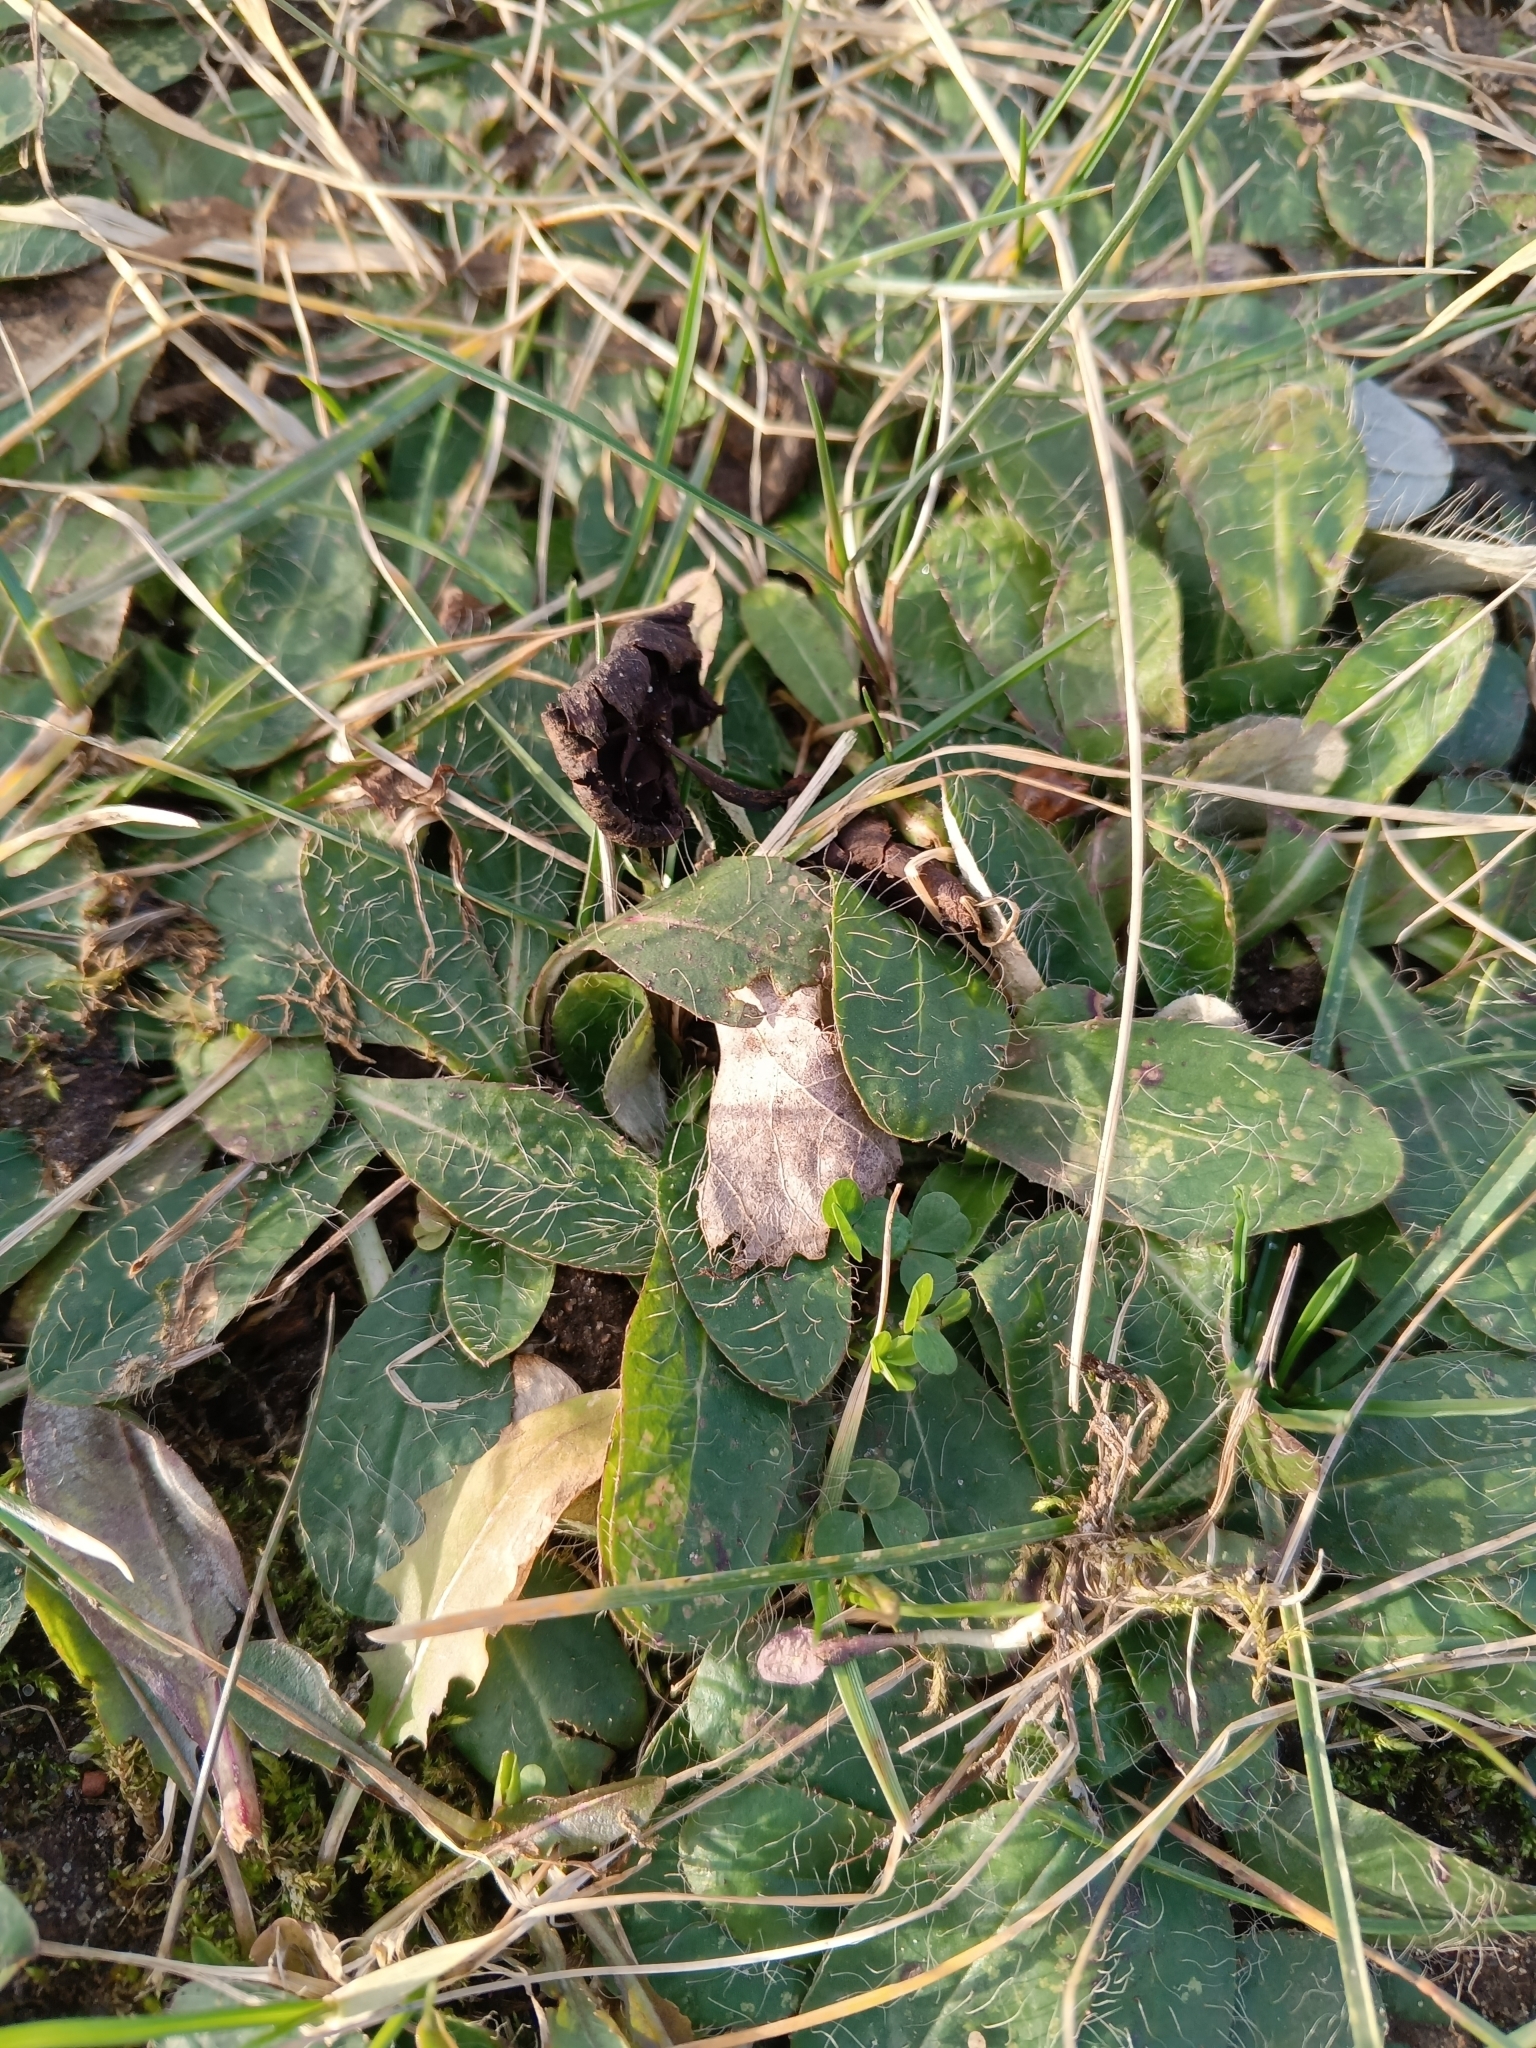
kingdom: Plantae
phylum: Tracheophyta
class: Magnoliopsida
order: Asterales
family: Asteraceae
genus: Pilosella
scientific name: Pilosella officinarum
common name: Mouse-ear hawkweed
